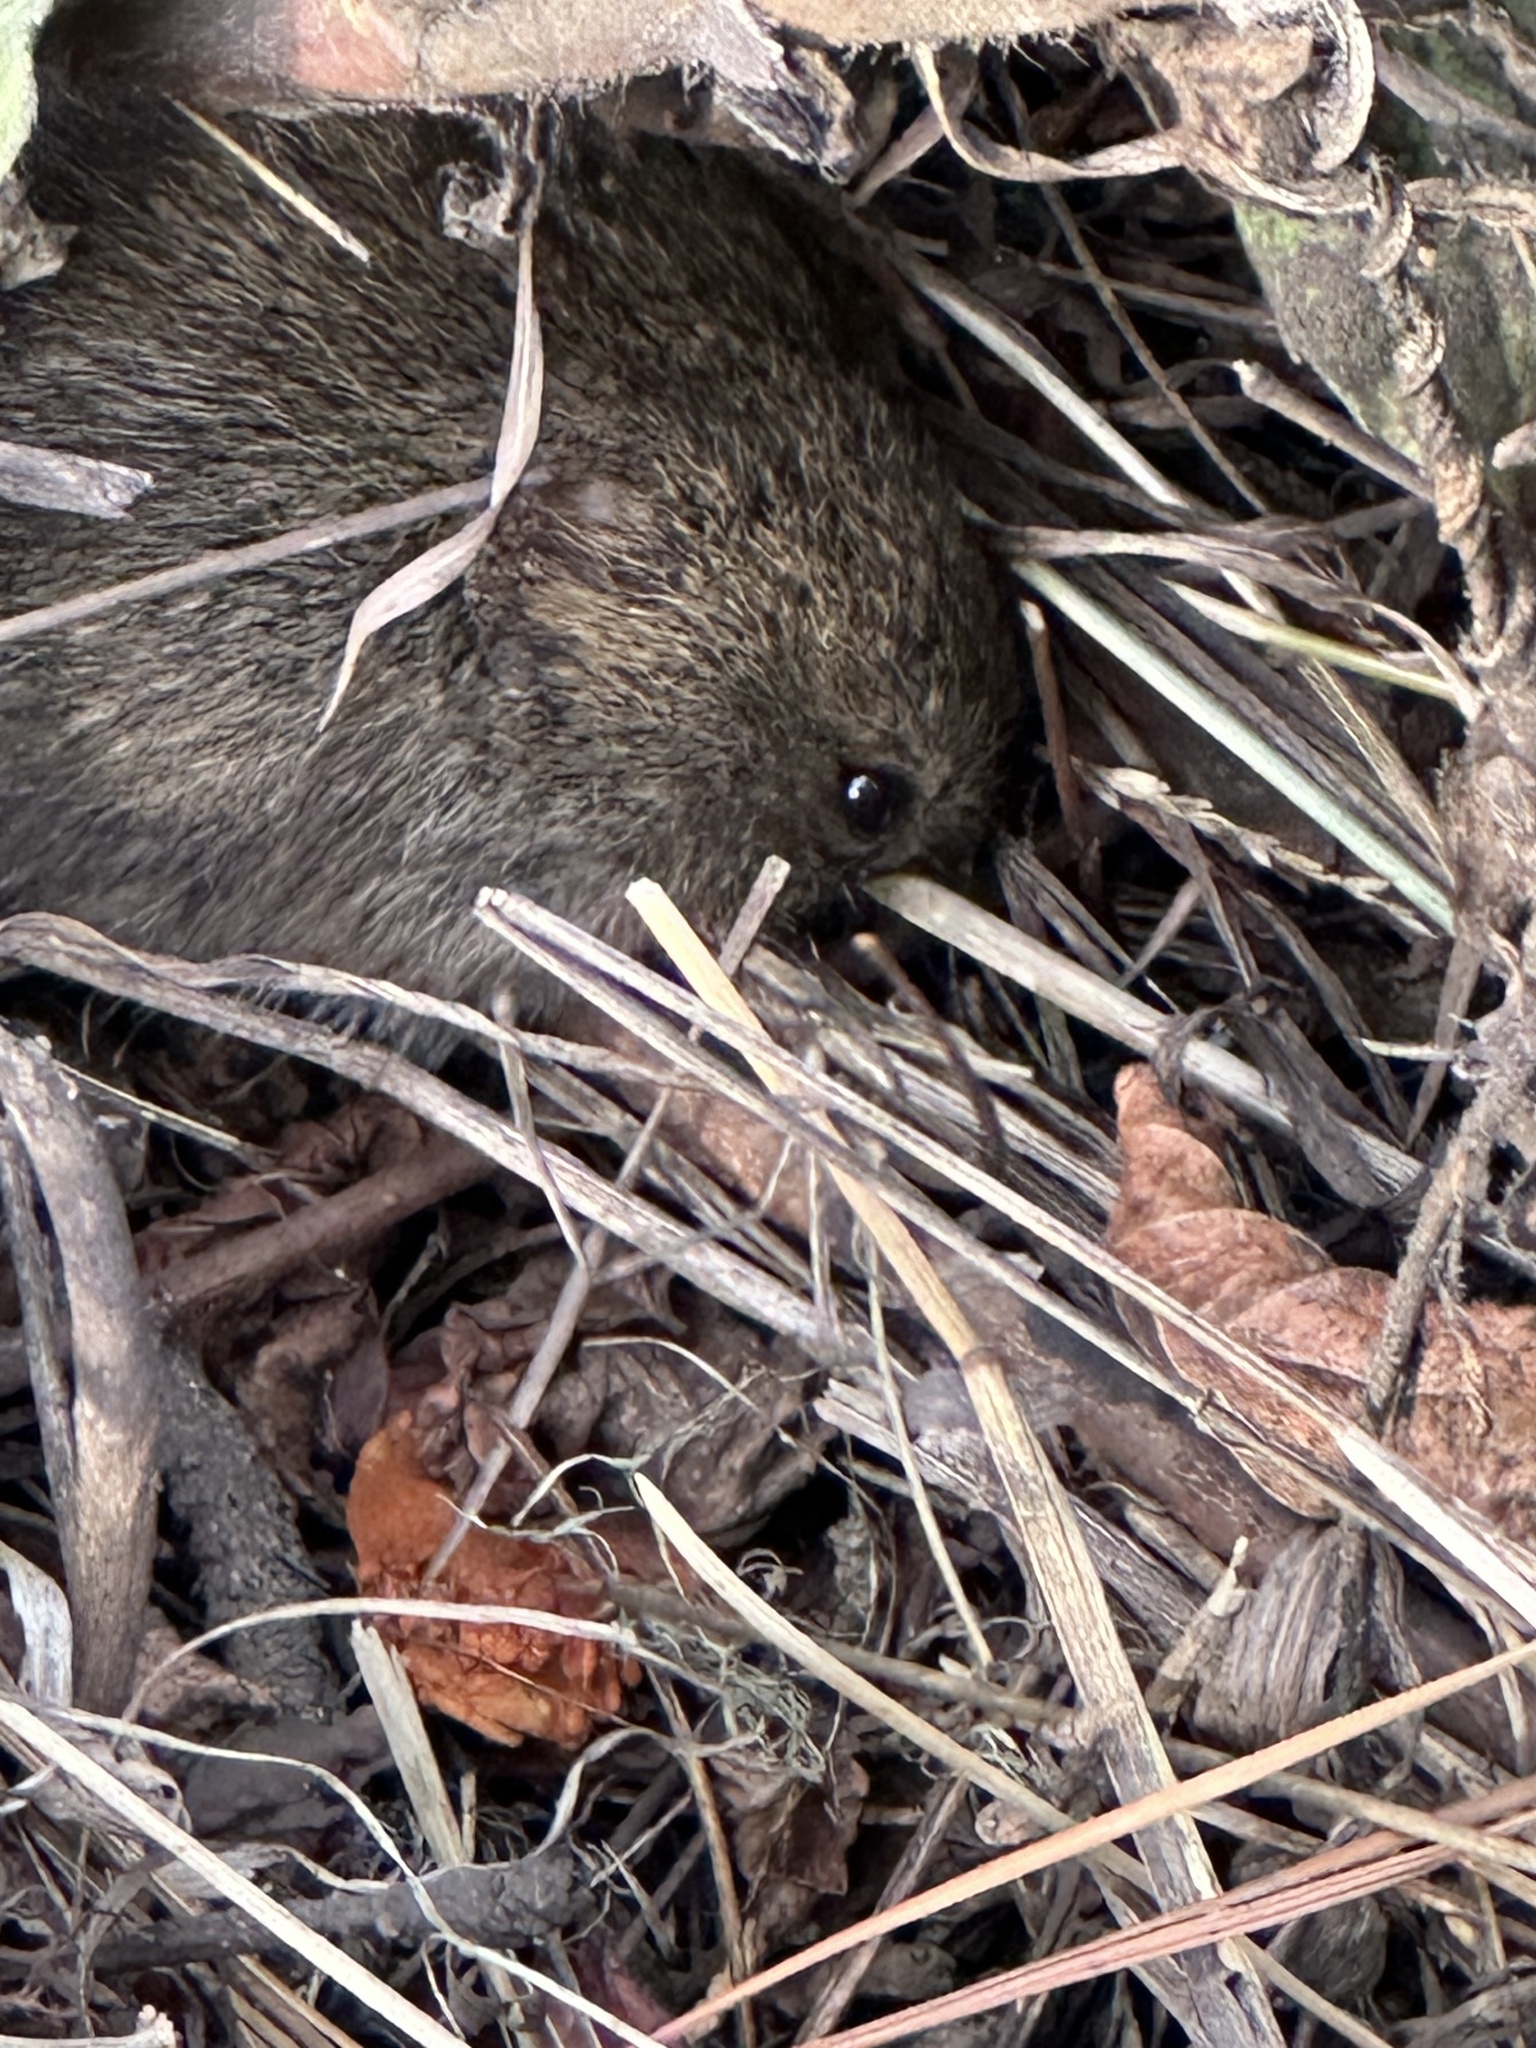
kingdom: Animalia
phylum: Chordata
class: Mammalia
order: Rodentia
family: Cricetidae
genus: Microtus
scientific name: Microtus californicus
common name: California vole
